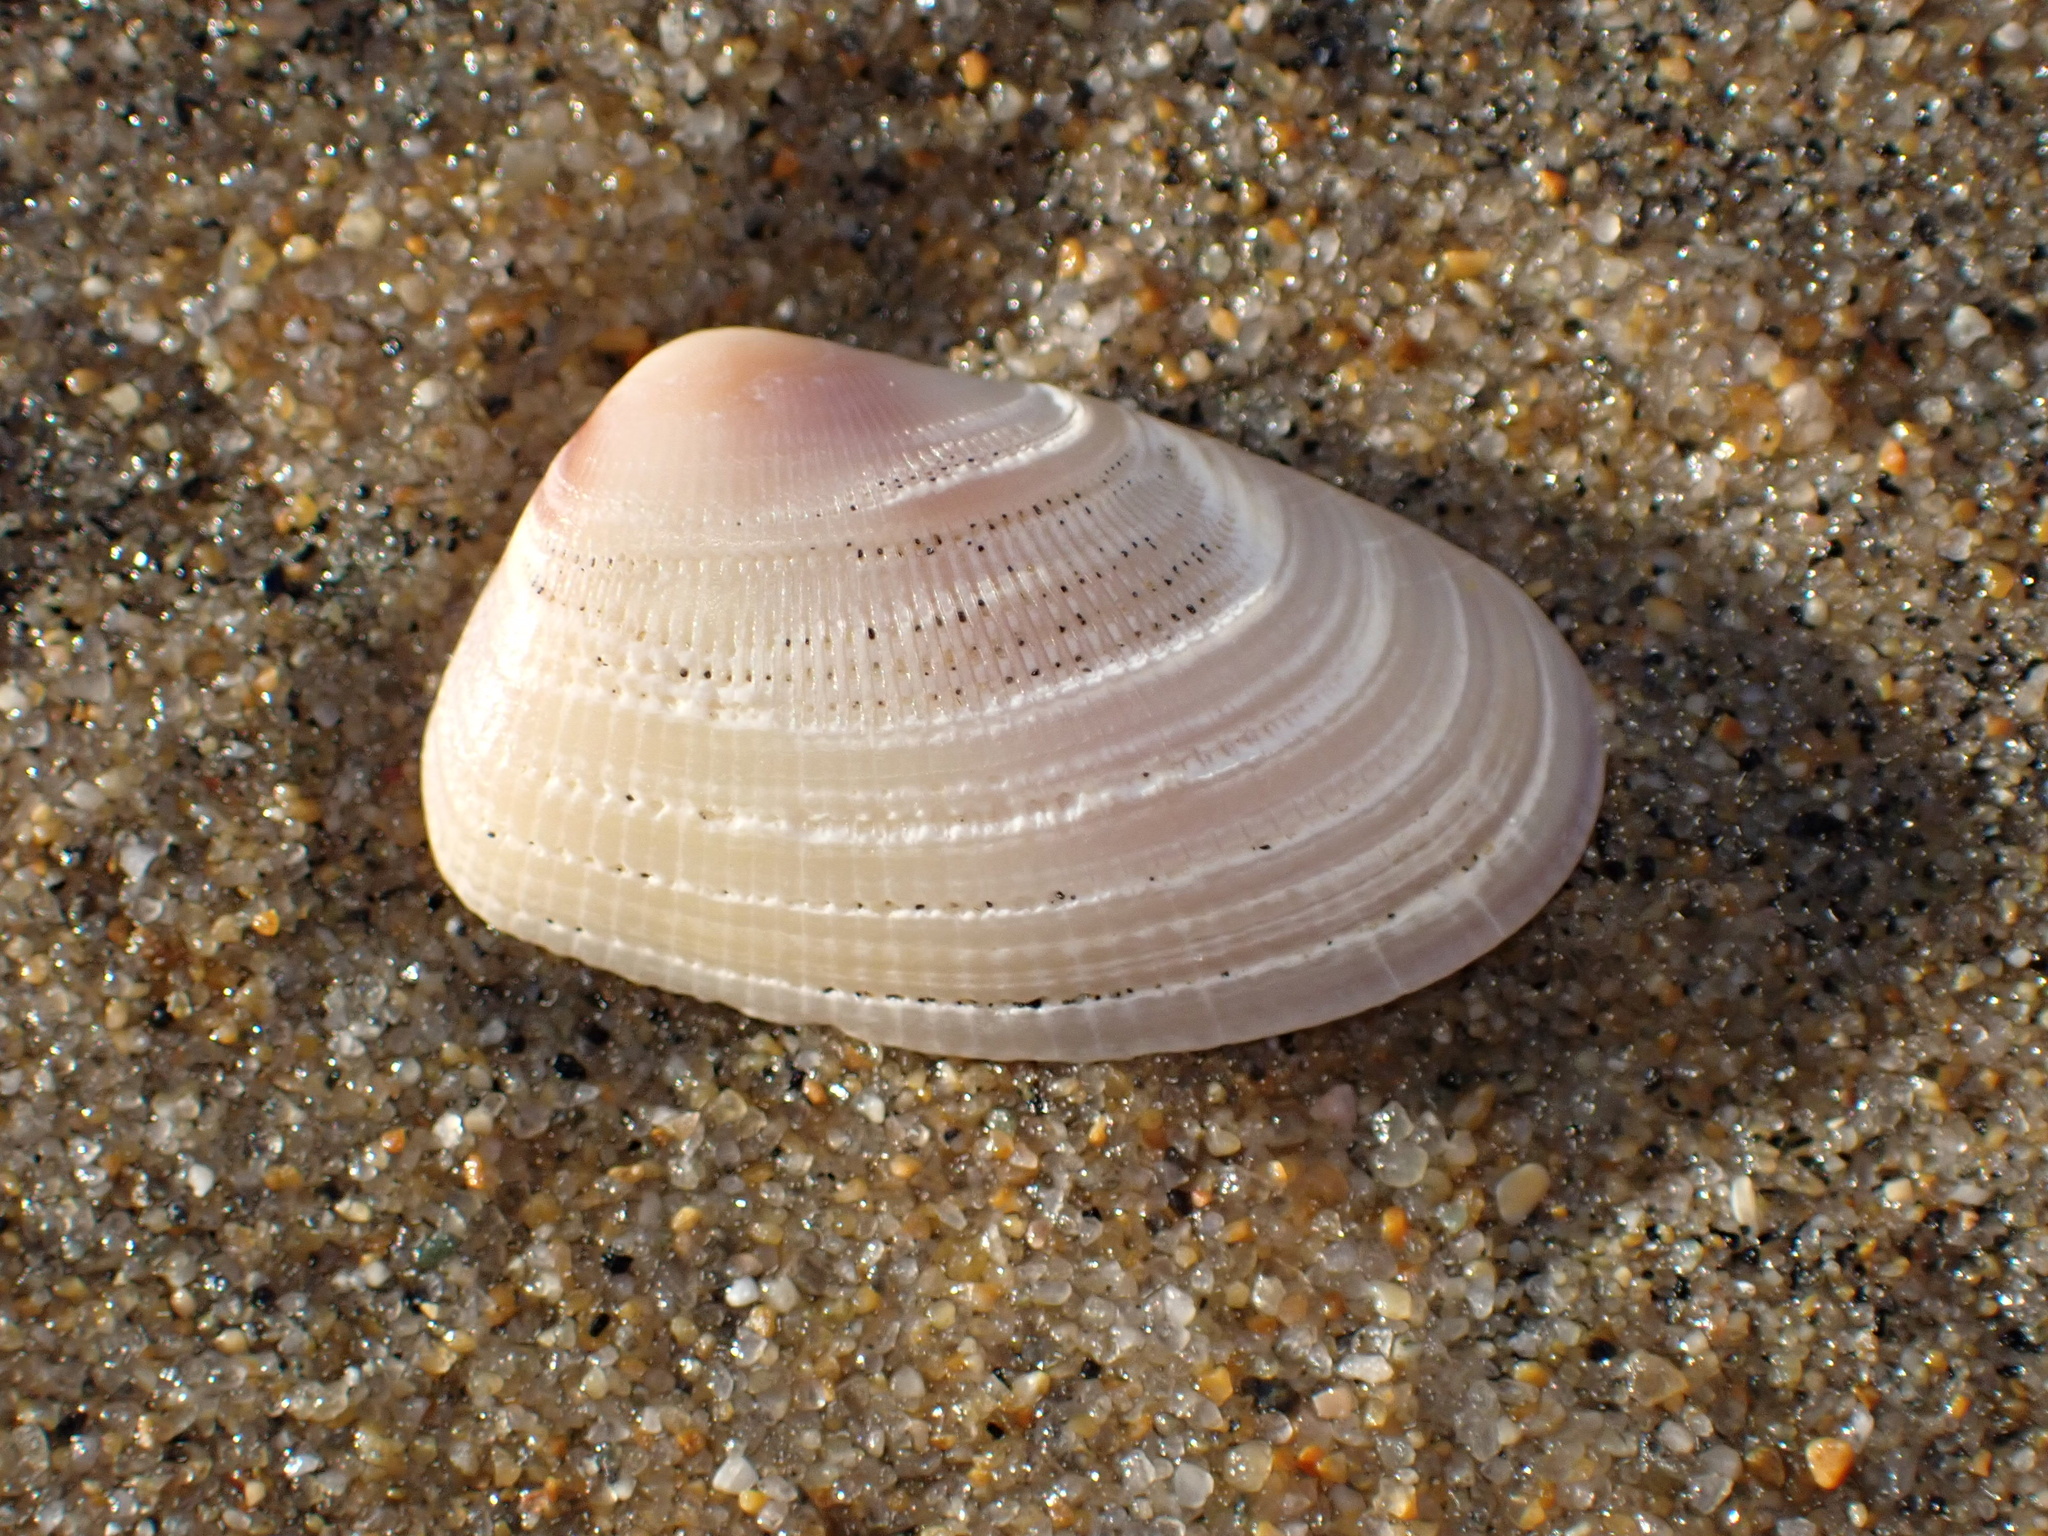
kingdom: Animalia
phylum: Mollusca
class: Bivalvia
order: Cardiida
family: Donacidae
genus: Donax
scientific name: Donax gouldii
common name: Gould beanclam
